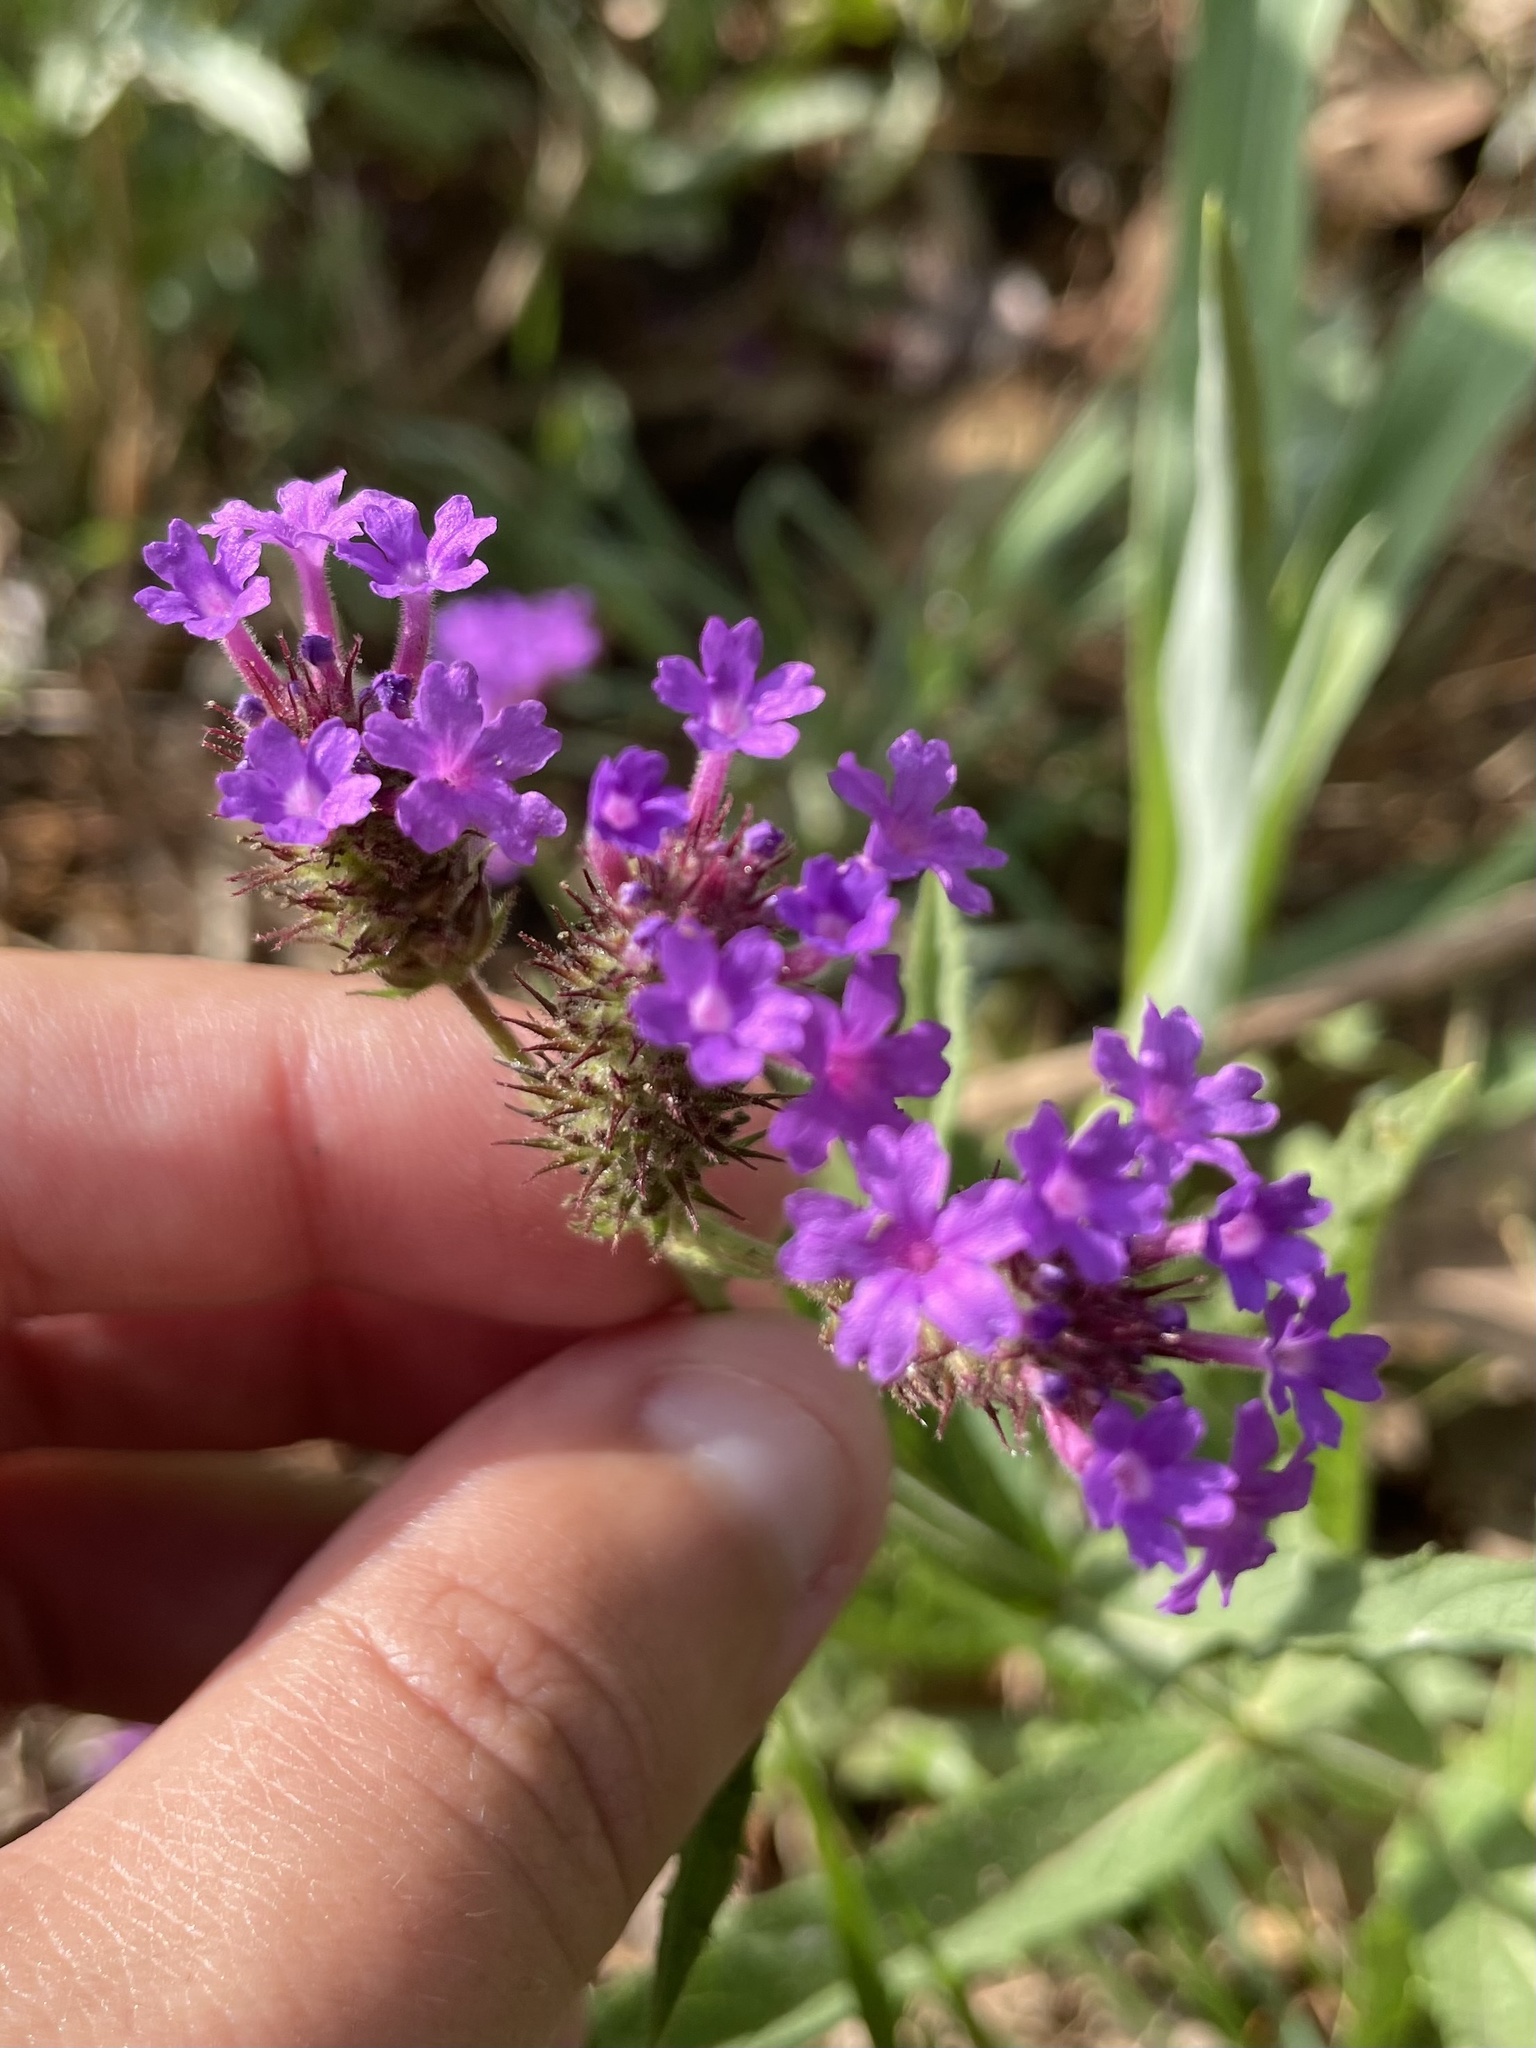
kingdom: Plantae
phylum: Tracheophyta
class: Magnoliopsida
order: Lamiales
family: Verbenaceae
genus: Verbena
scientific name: Verbena rigida
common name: Slender vervain
